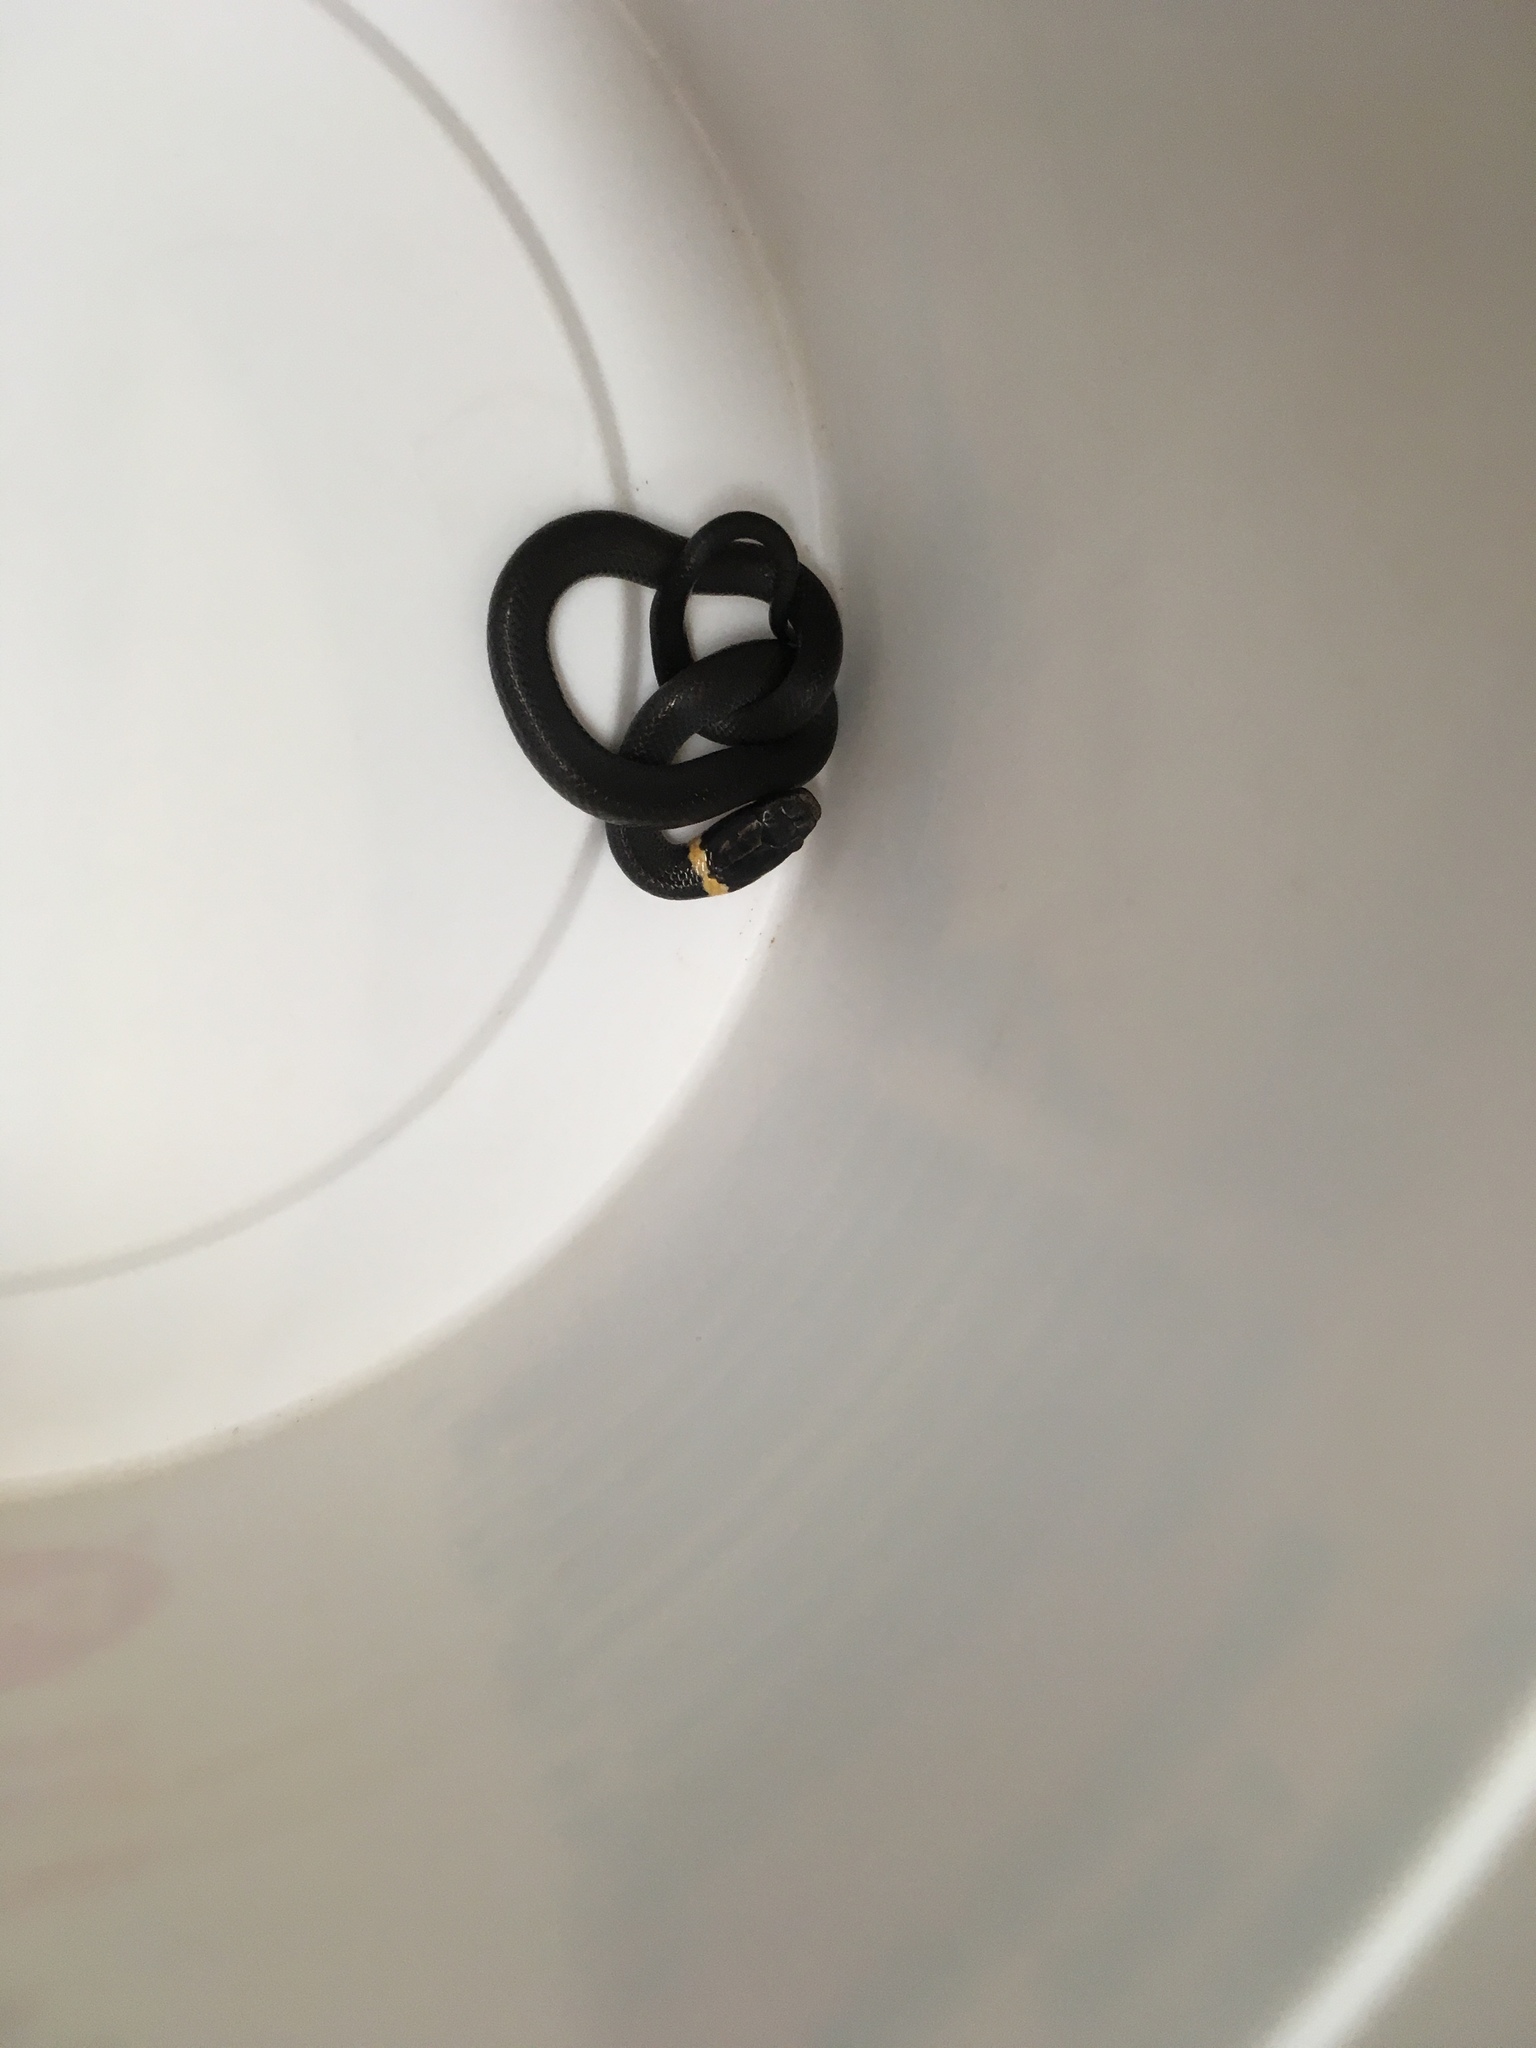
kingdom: Animalia
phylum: Chordata
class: Squamata
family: Colubridae
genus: Diadophis
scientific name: Diadophis punctatus
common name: Ringneck snake
